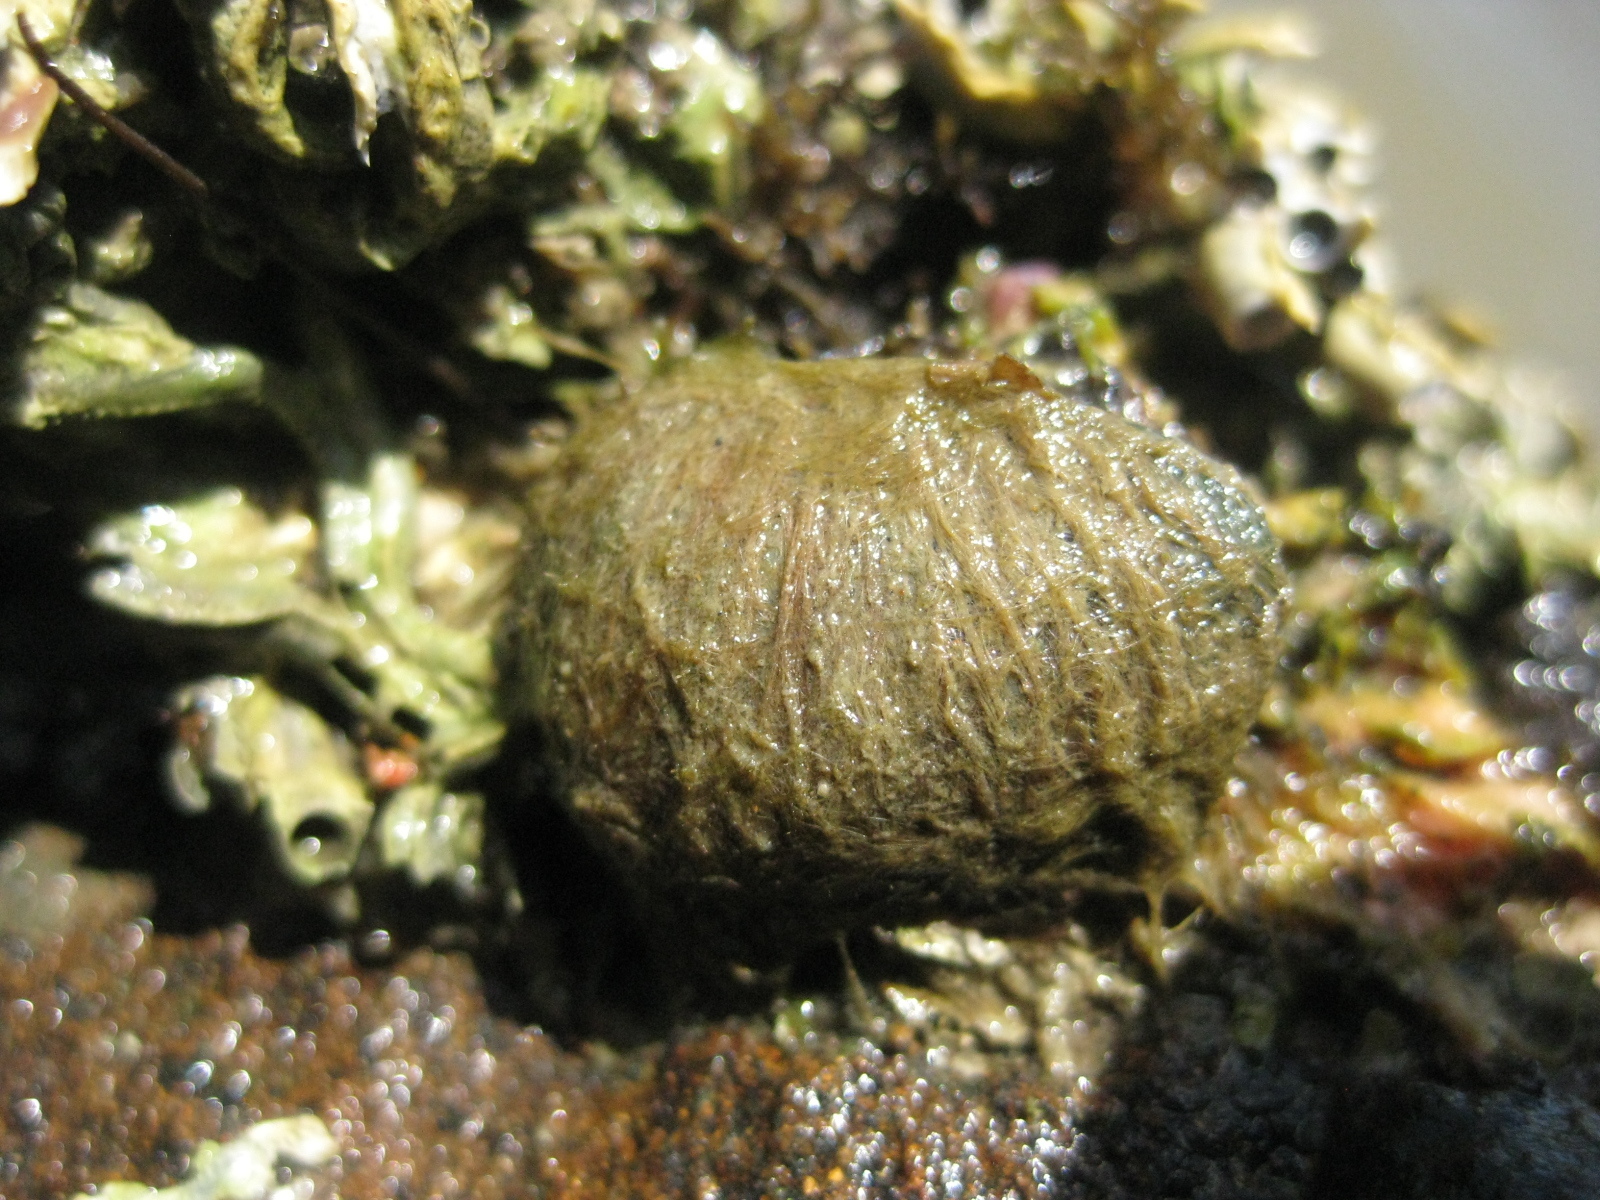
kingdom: Animalia
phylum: Mollusca
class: Bivalvia
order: Mytilida
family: Mytilidae
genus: Musculus
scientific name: Musculus impactus
